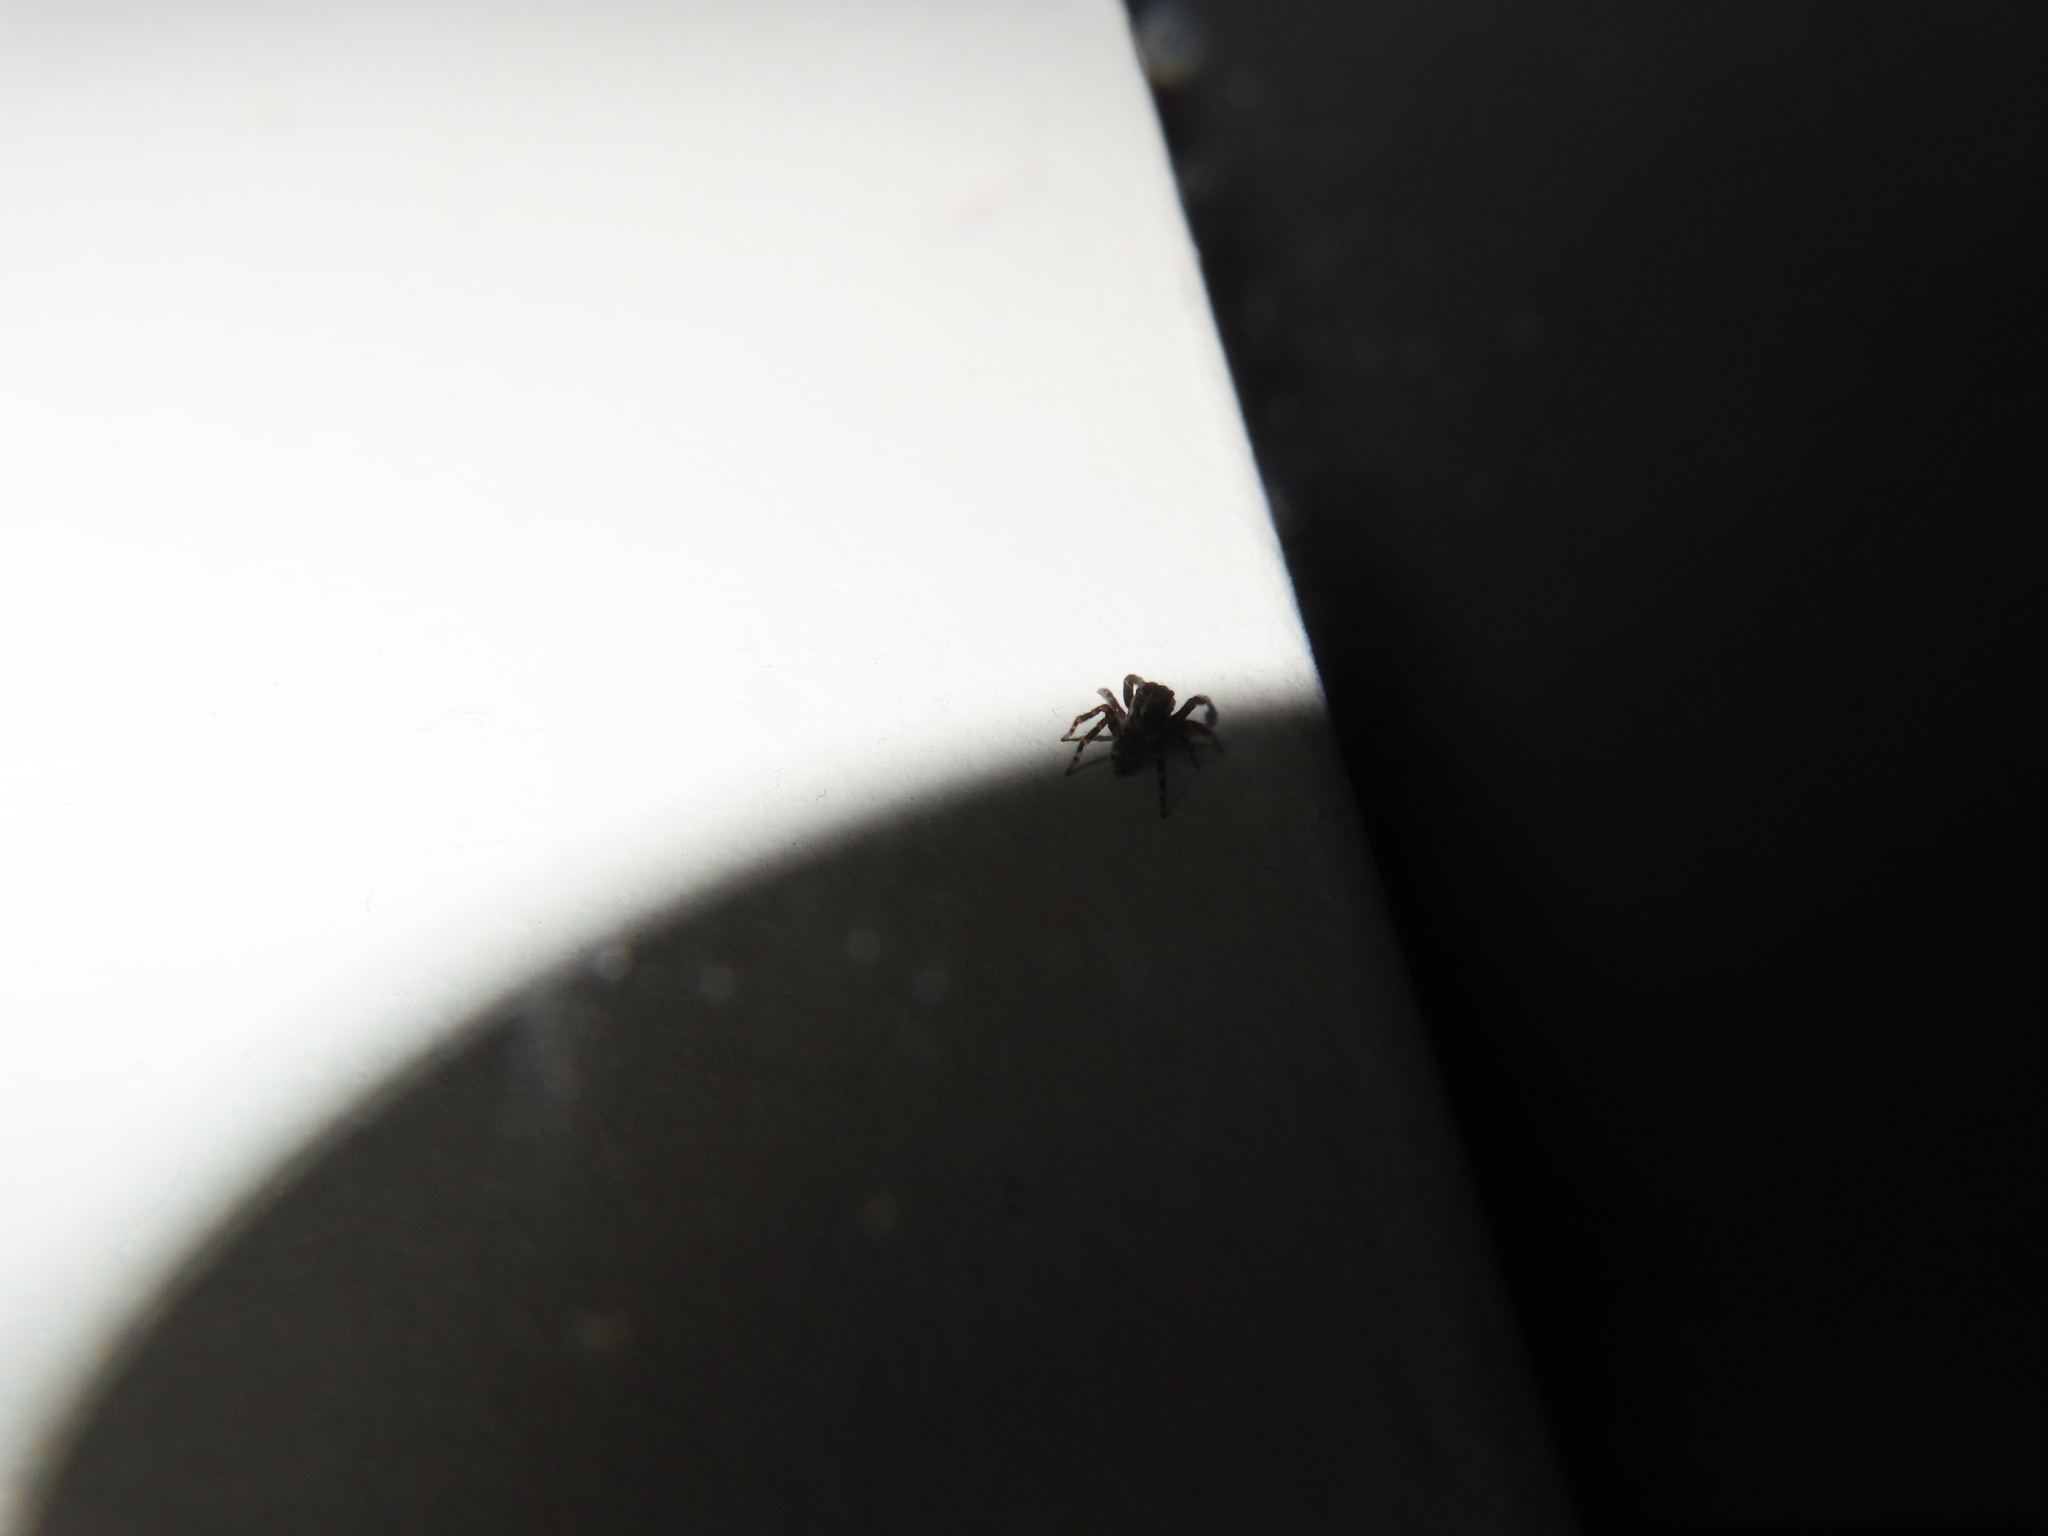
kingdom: Animalia
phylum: Arthropoda
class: Arachnida
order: Araneae
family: Salticidae
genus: Pseudeuophrys
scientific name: Pseudeuophrys erratica
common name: Jumping spider
